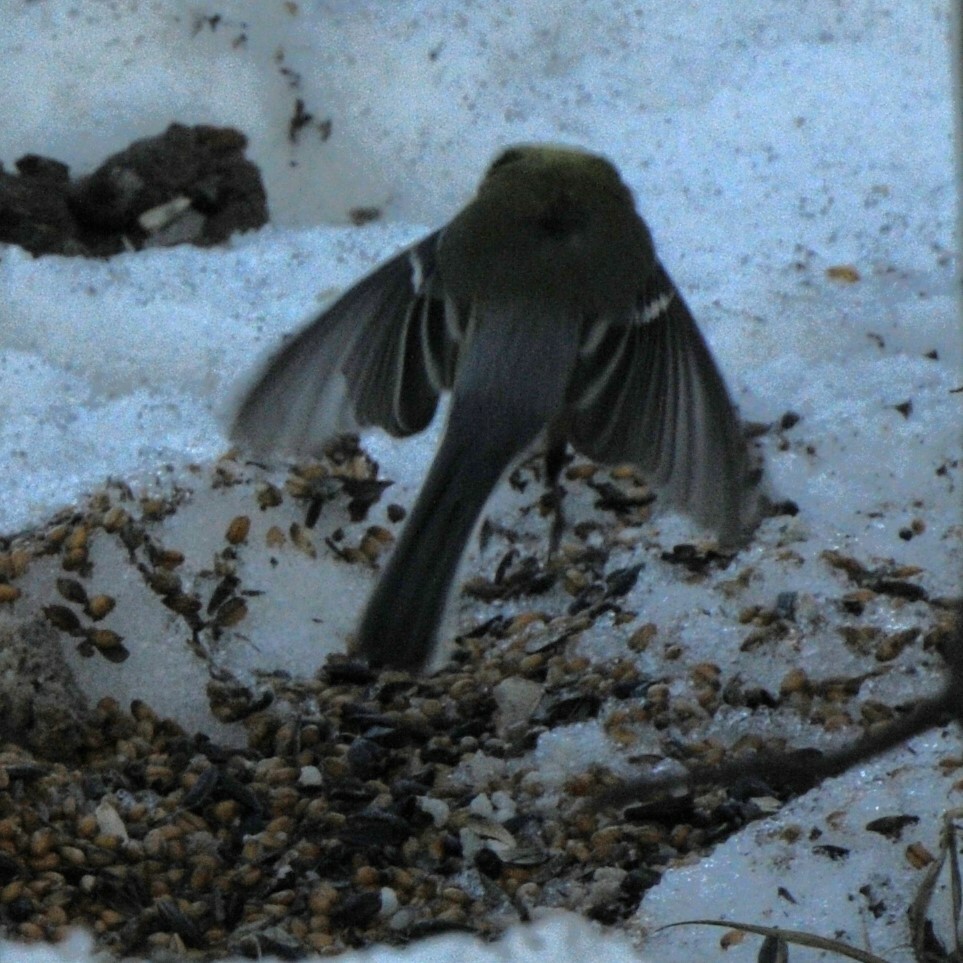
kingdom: Animalia
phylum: Chordata
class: Aves
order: Passeriformes
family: Paridae
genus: Parus
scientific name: Parus major
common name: Great tit
